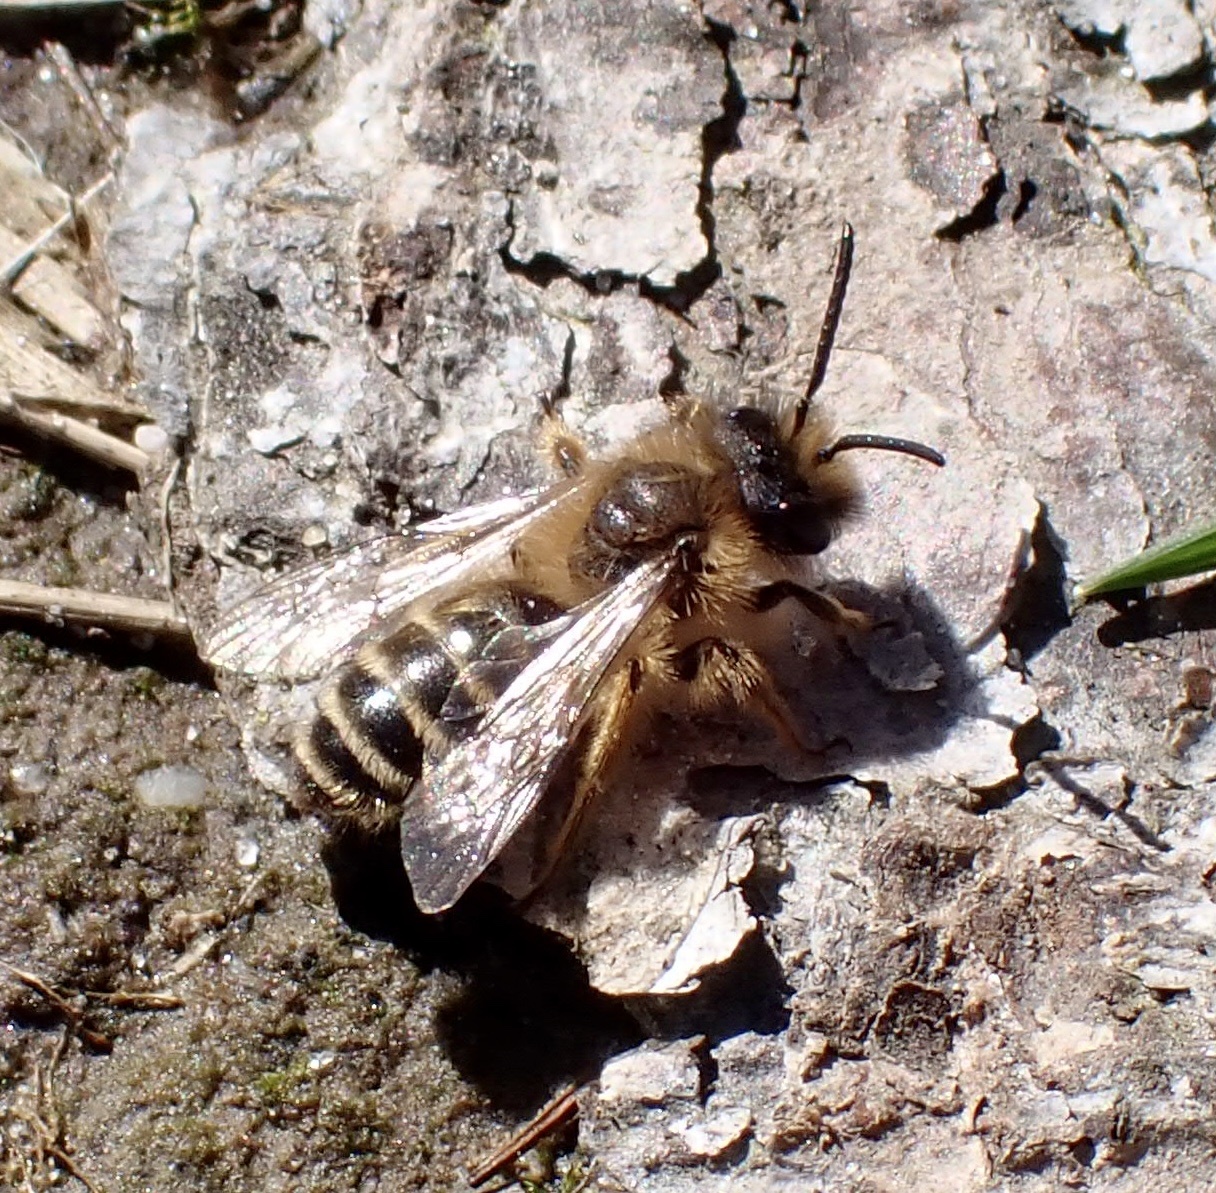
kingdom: Animalia
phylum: Arthropoda
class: Insecta
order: Hymenoptera
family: Andrenidae
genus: Andrena
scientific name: Andrena flavipes
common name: Yellow-legged mining bee
